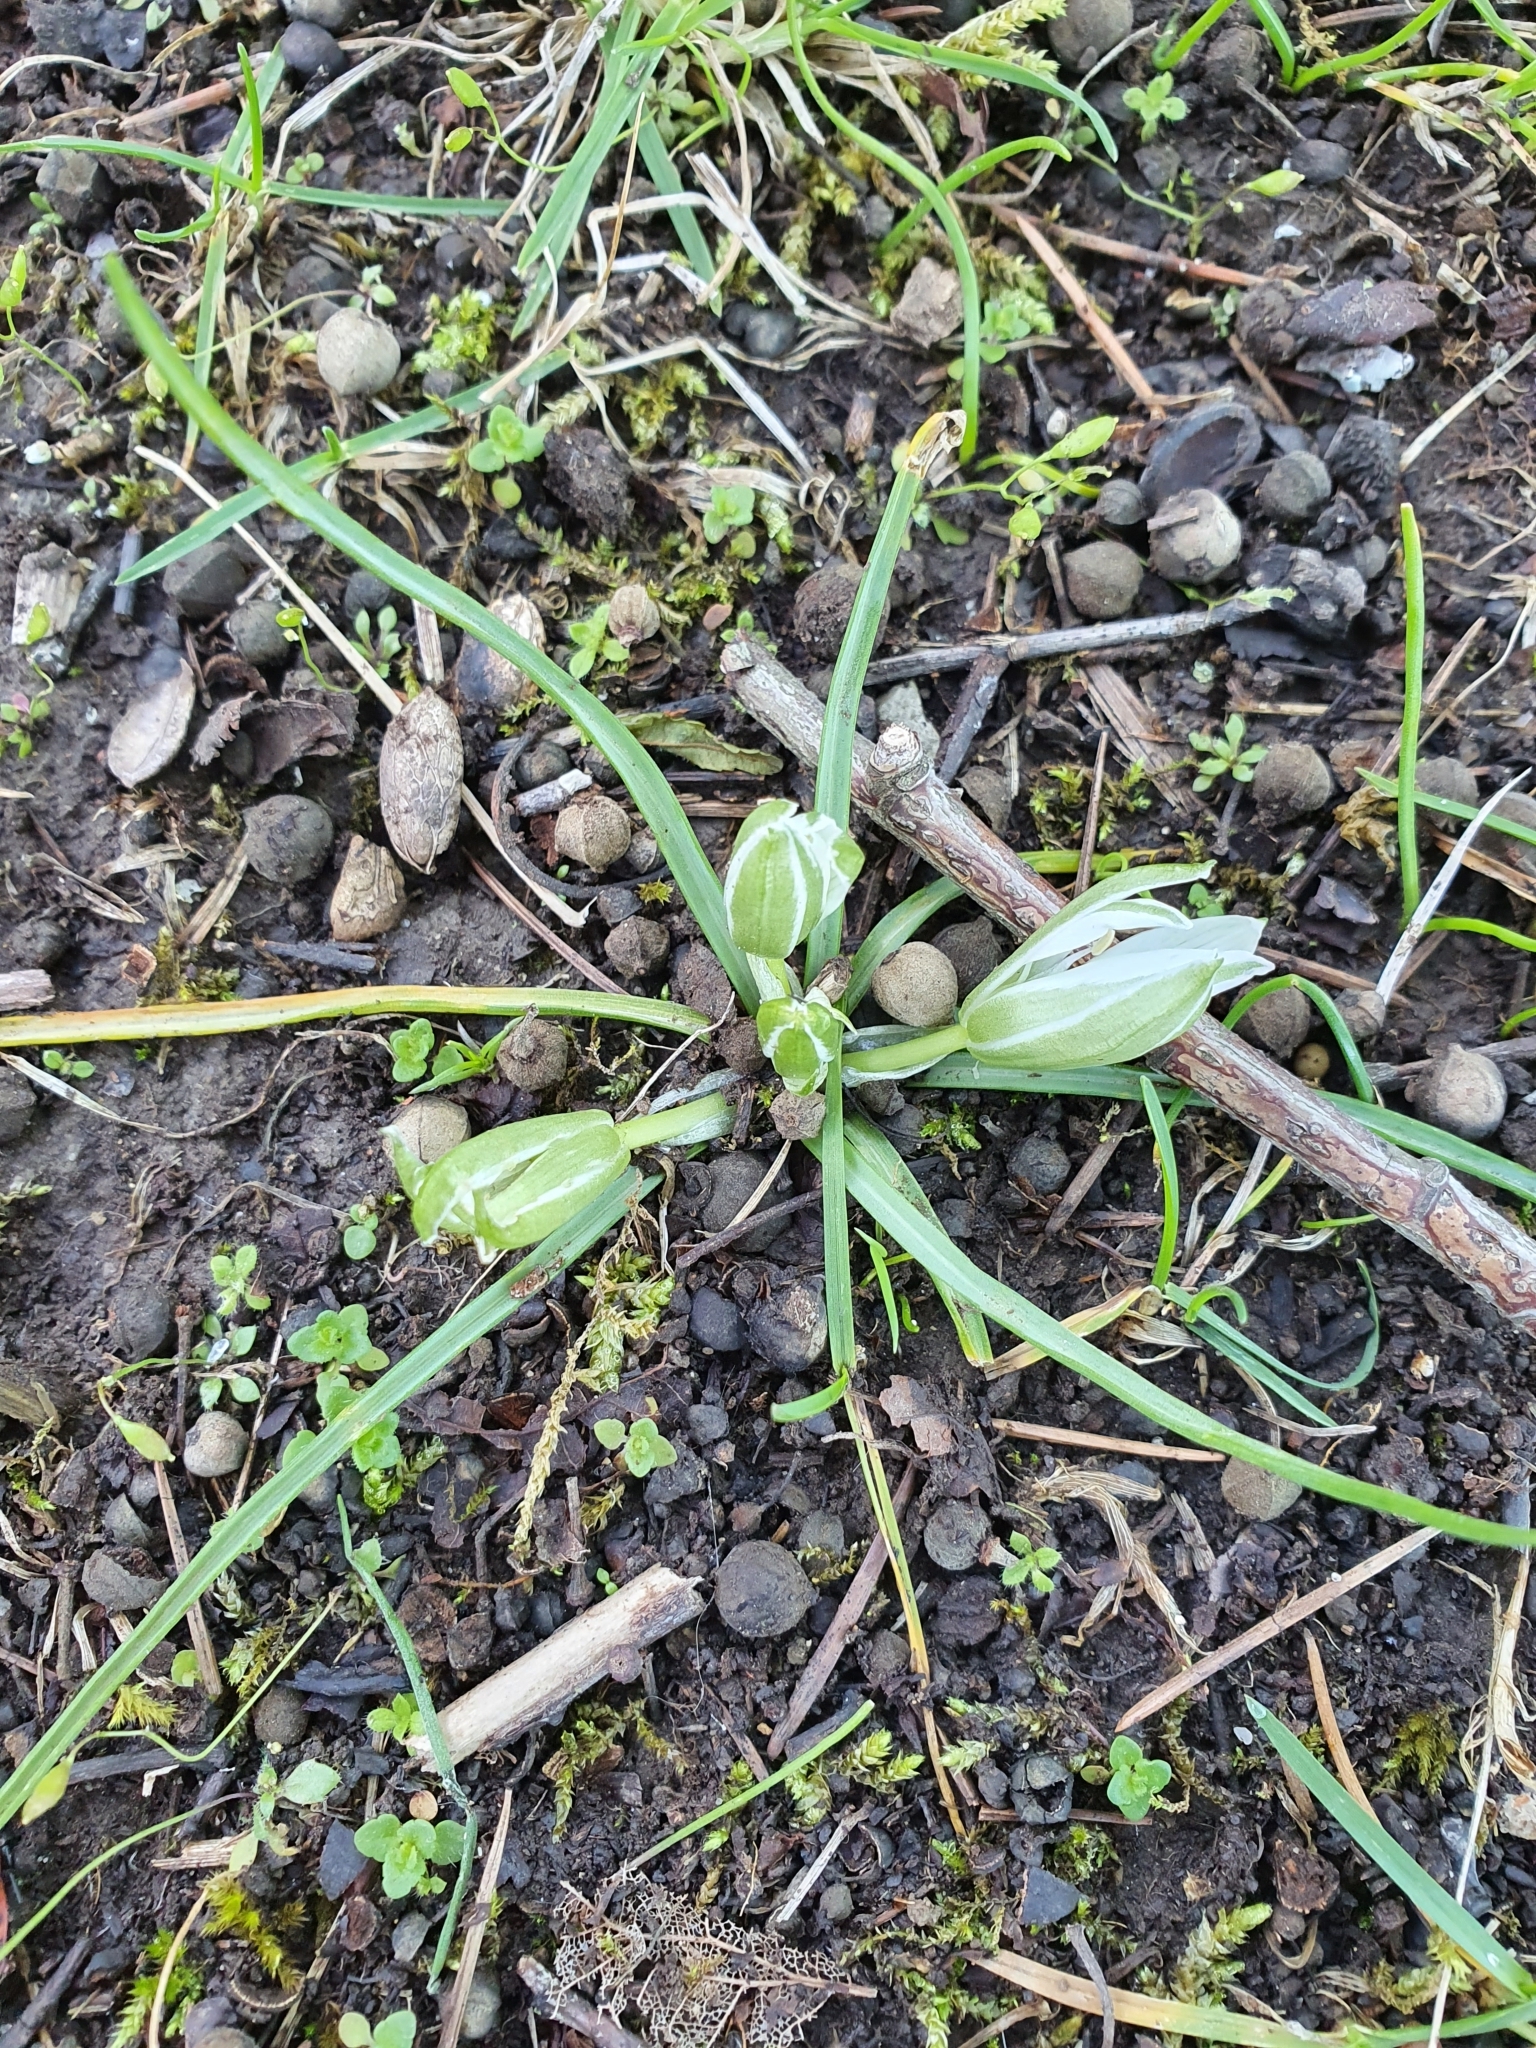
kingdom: Plantae
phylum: Tracheophyta
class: Liliopsida
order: Asparagales
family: Asparagaceae
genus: Ornithogalum
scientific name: Ornithogalum exscapum
